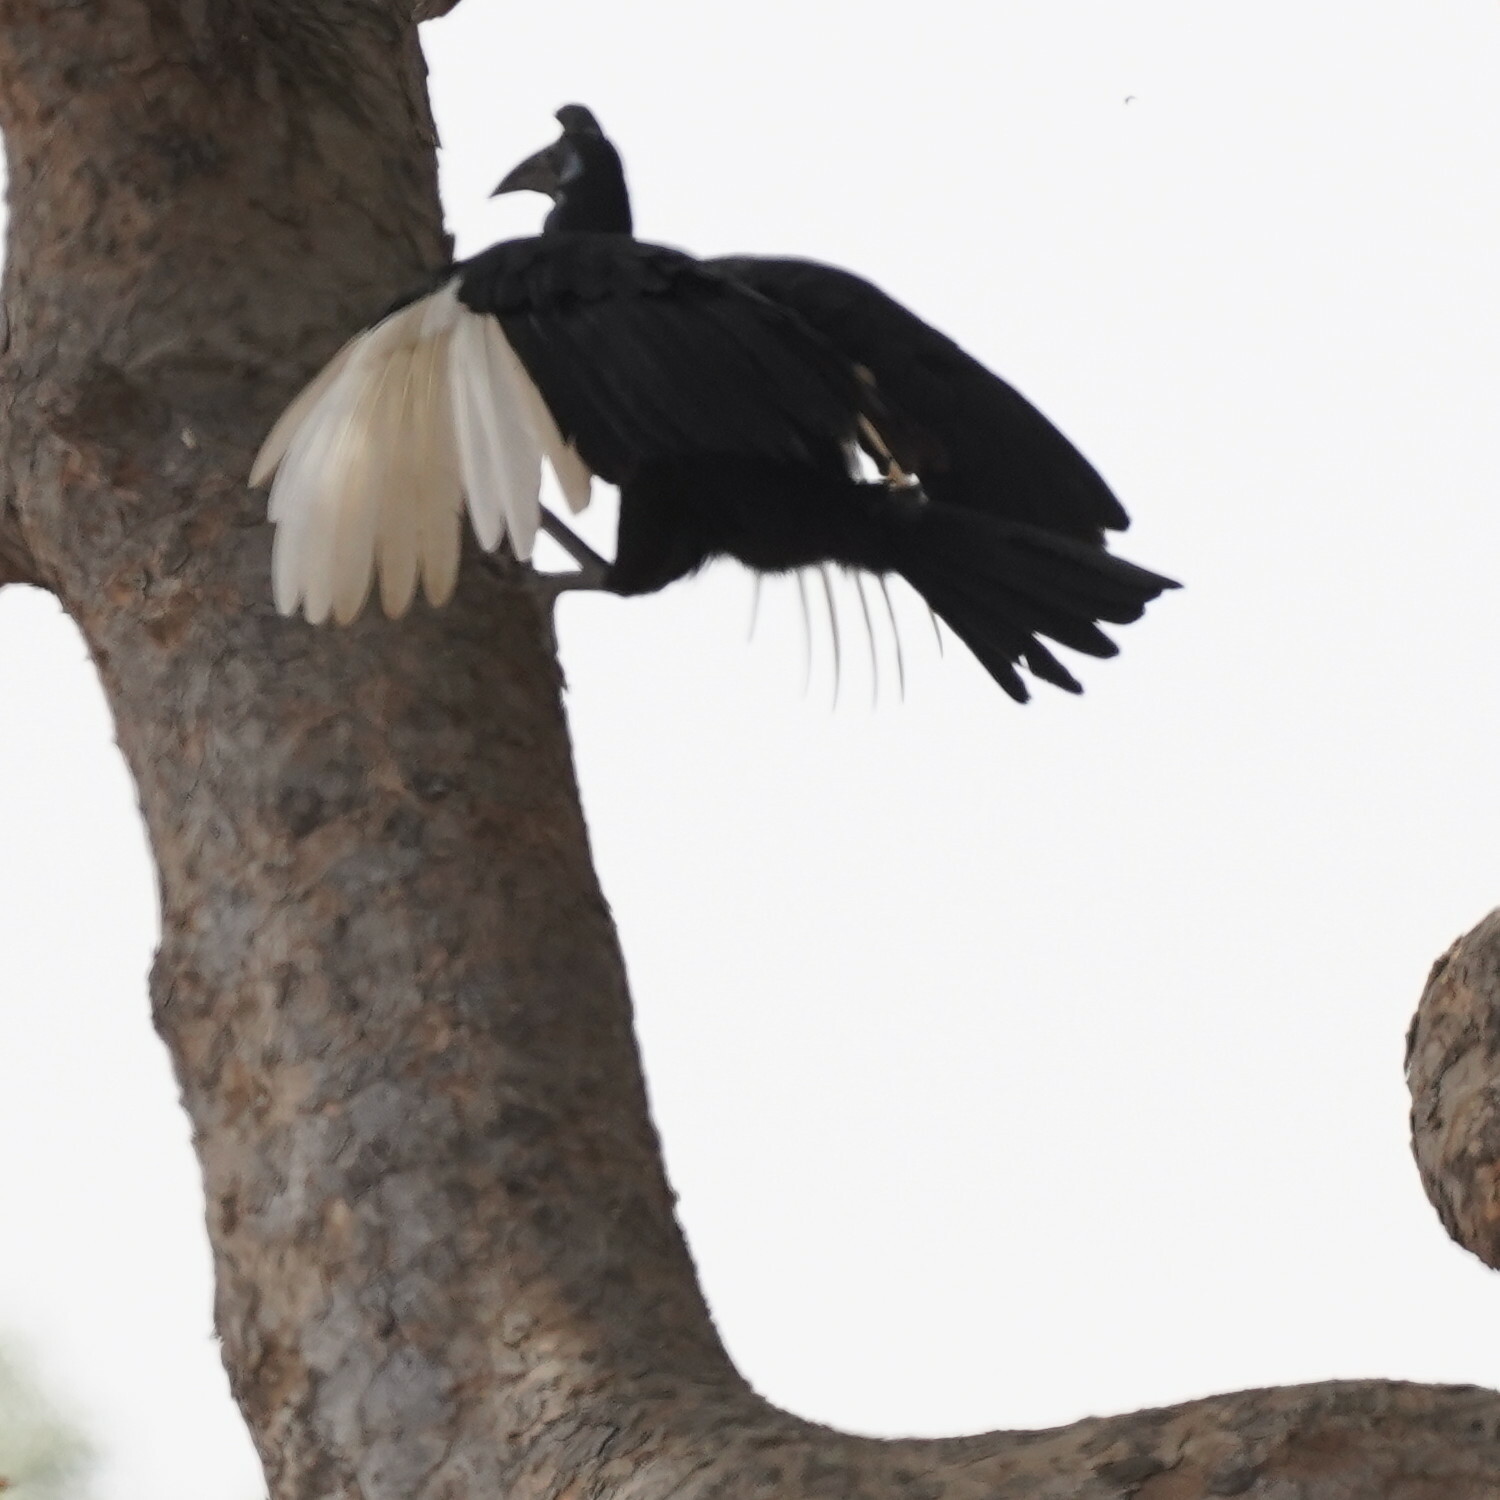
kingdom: Animalia
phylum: Chordata
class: Aves
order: Bucerotiformes
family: Bucorvidae
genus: Bucorvus
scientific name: Bucorvus abyssinicus
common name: Abyssinian ground hornbill
